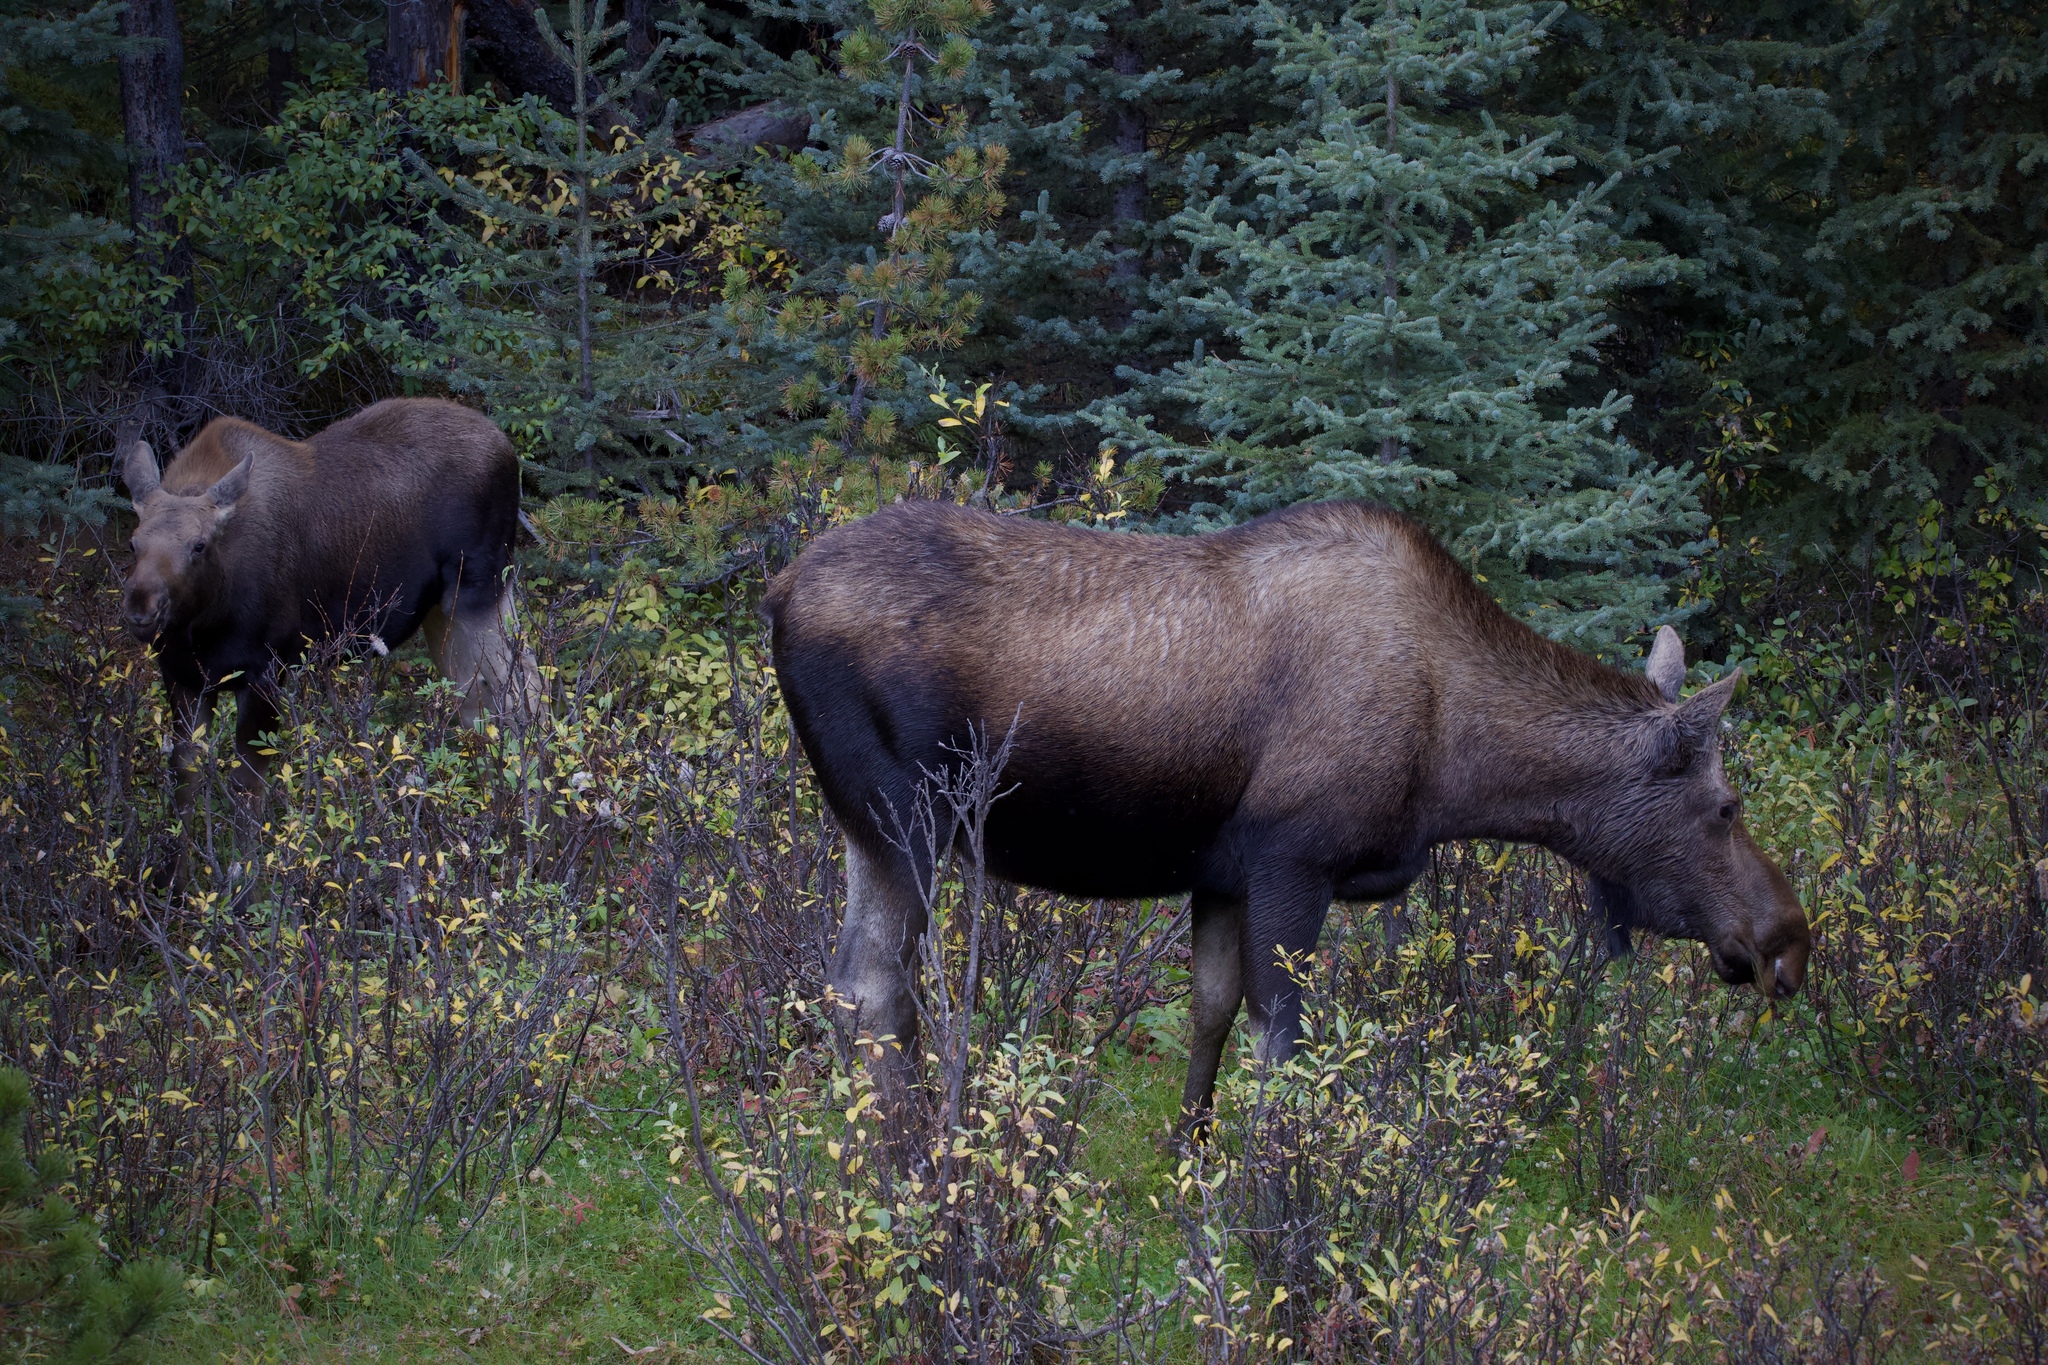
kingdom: Animalia
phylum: Chordata
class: Mammalia
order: Artiodactyla
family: Cervidae
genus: Alces
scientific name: Alces americanus
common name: Moose
